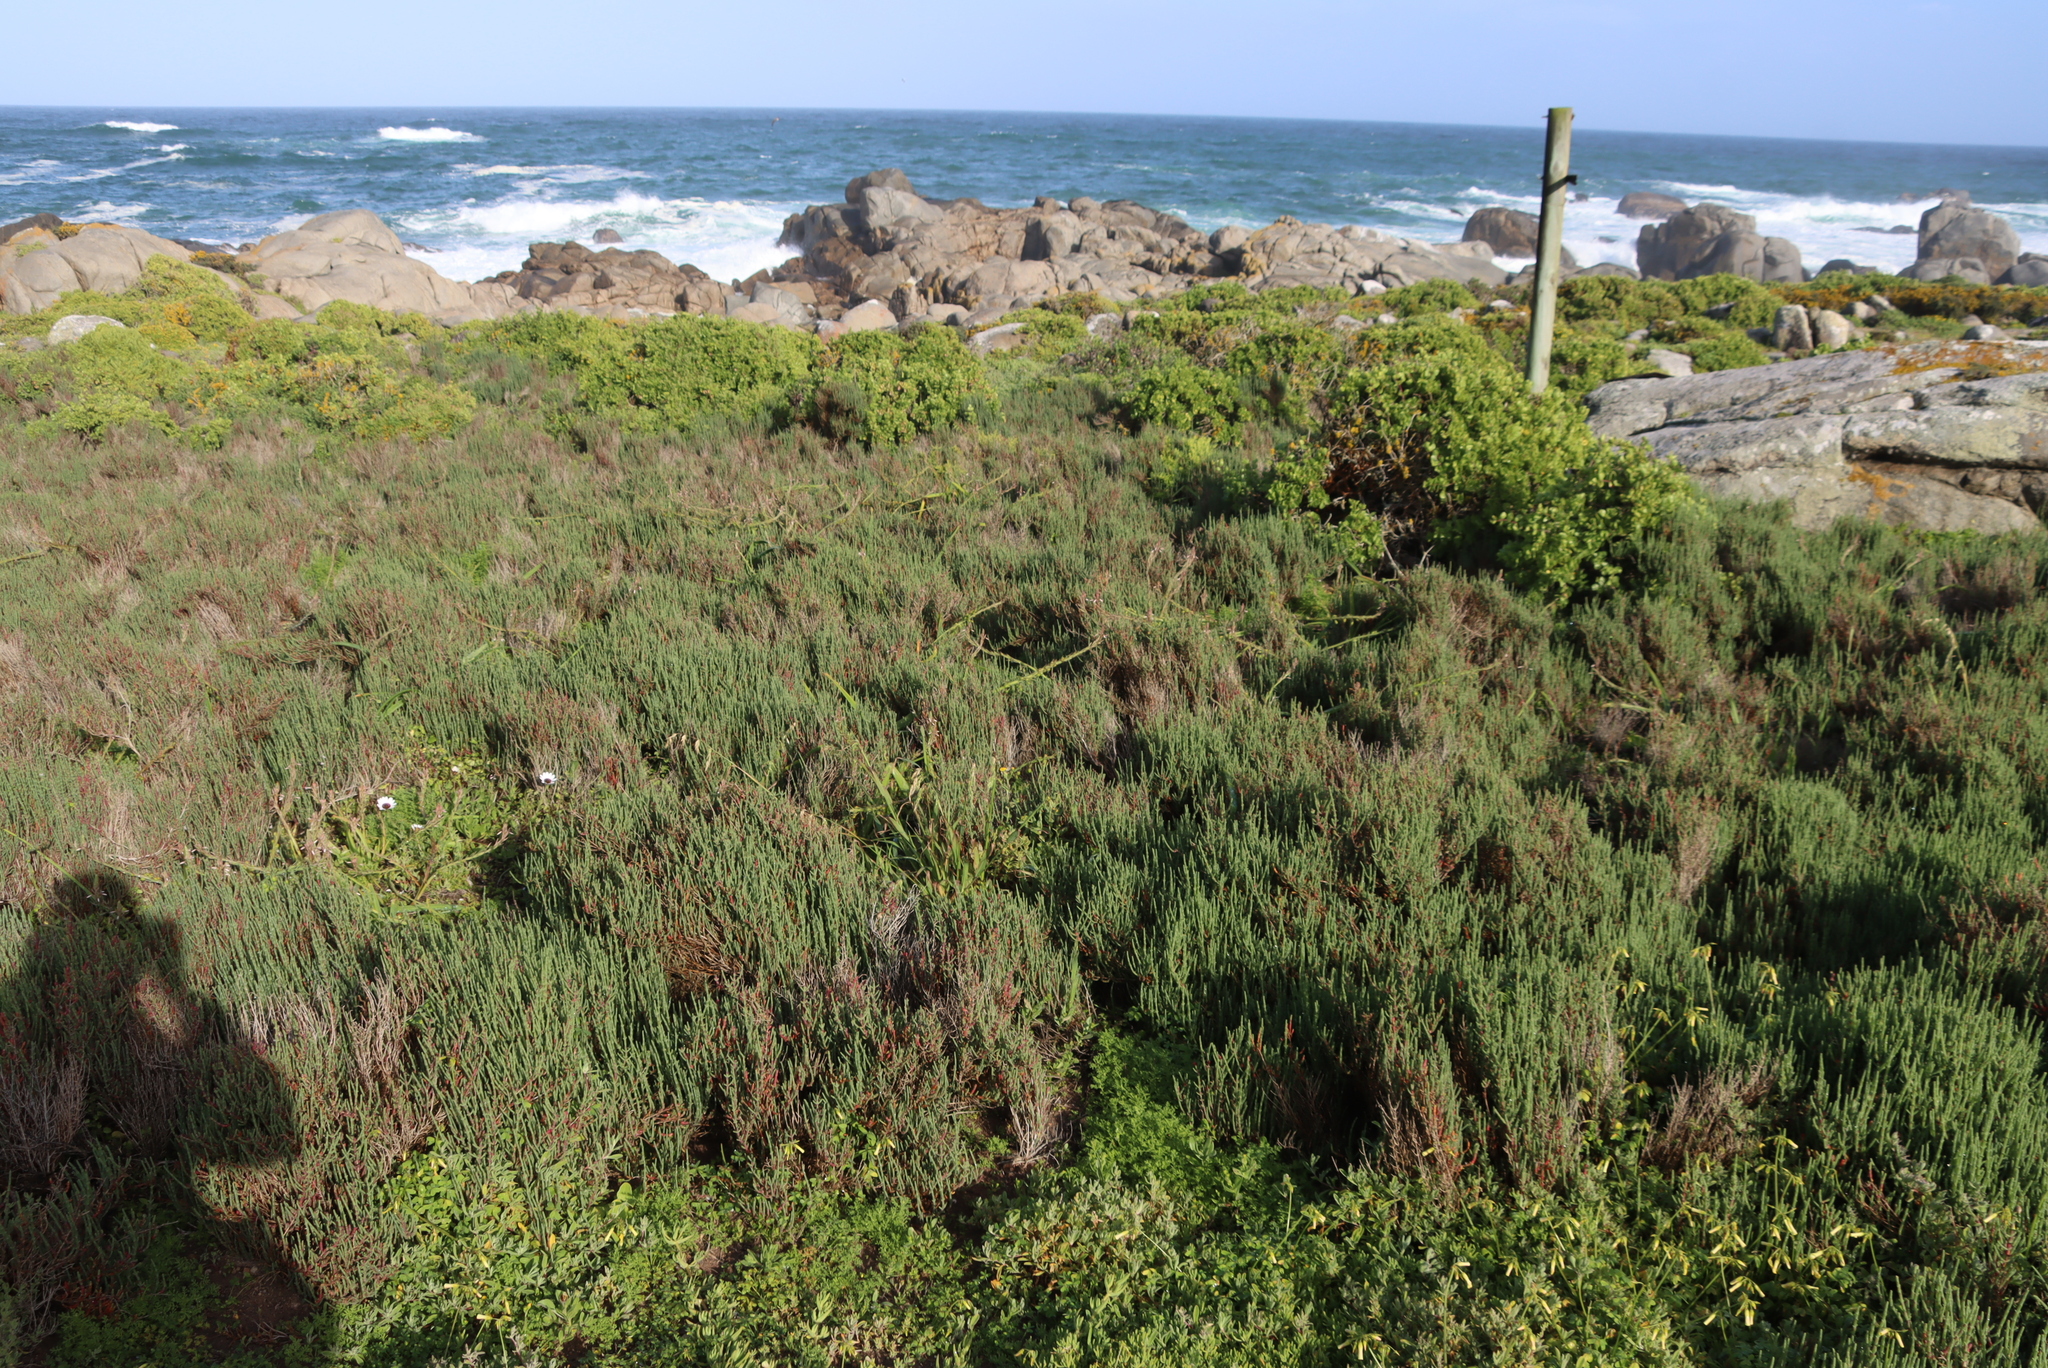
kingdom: Plantae
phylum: Tracheophyta
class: Magnoliopsida
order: Caryophyllales
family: Amaranthaceae
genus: Salicornia
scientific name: Salicornia pillansii
